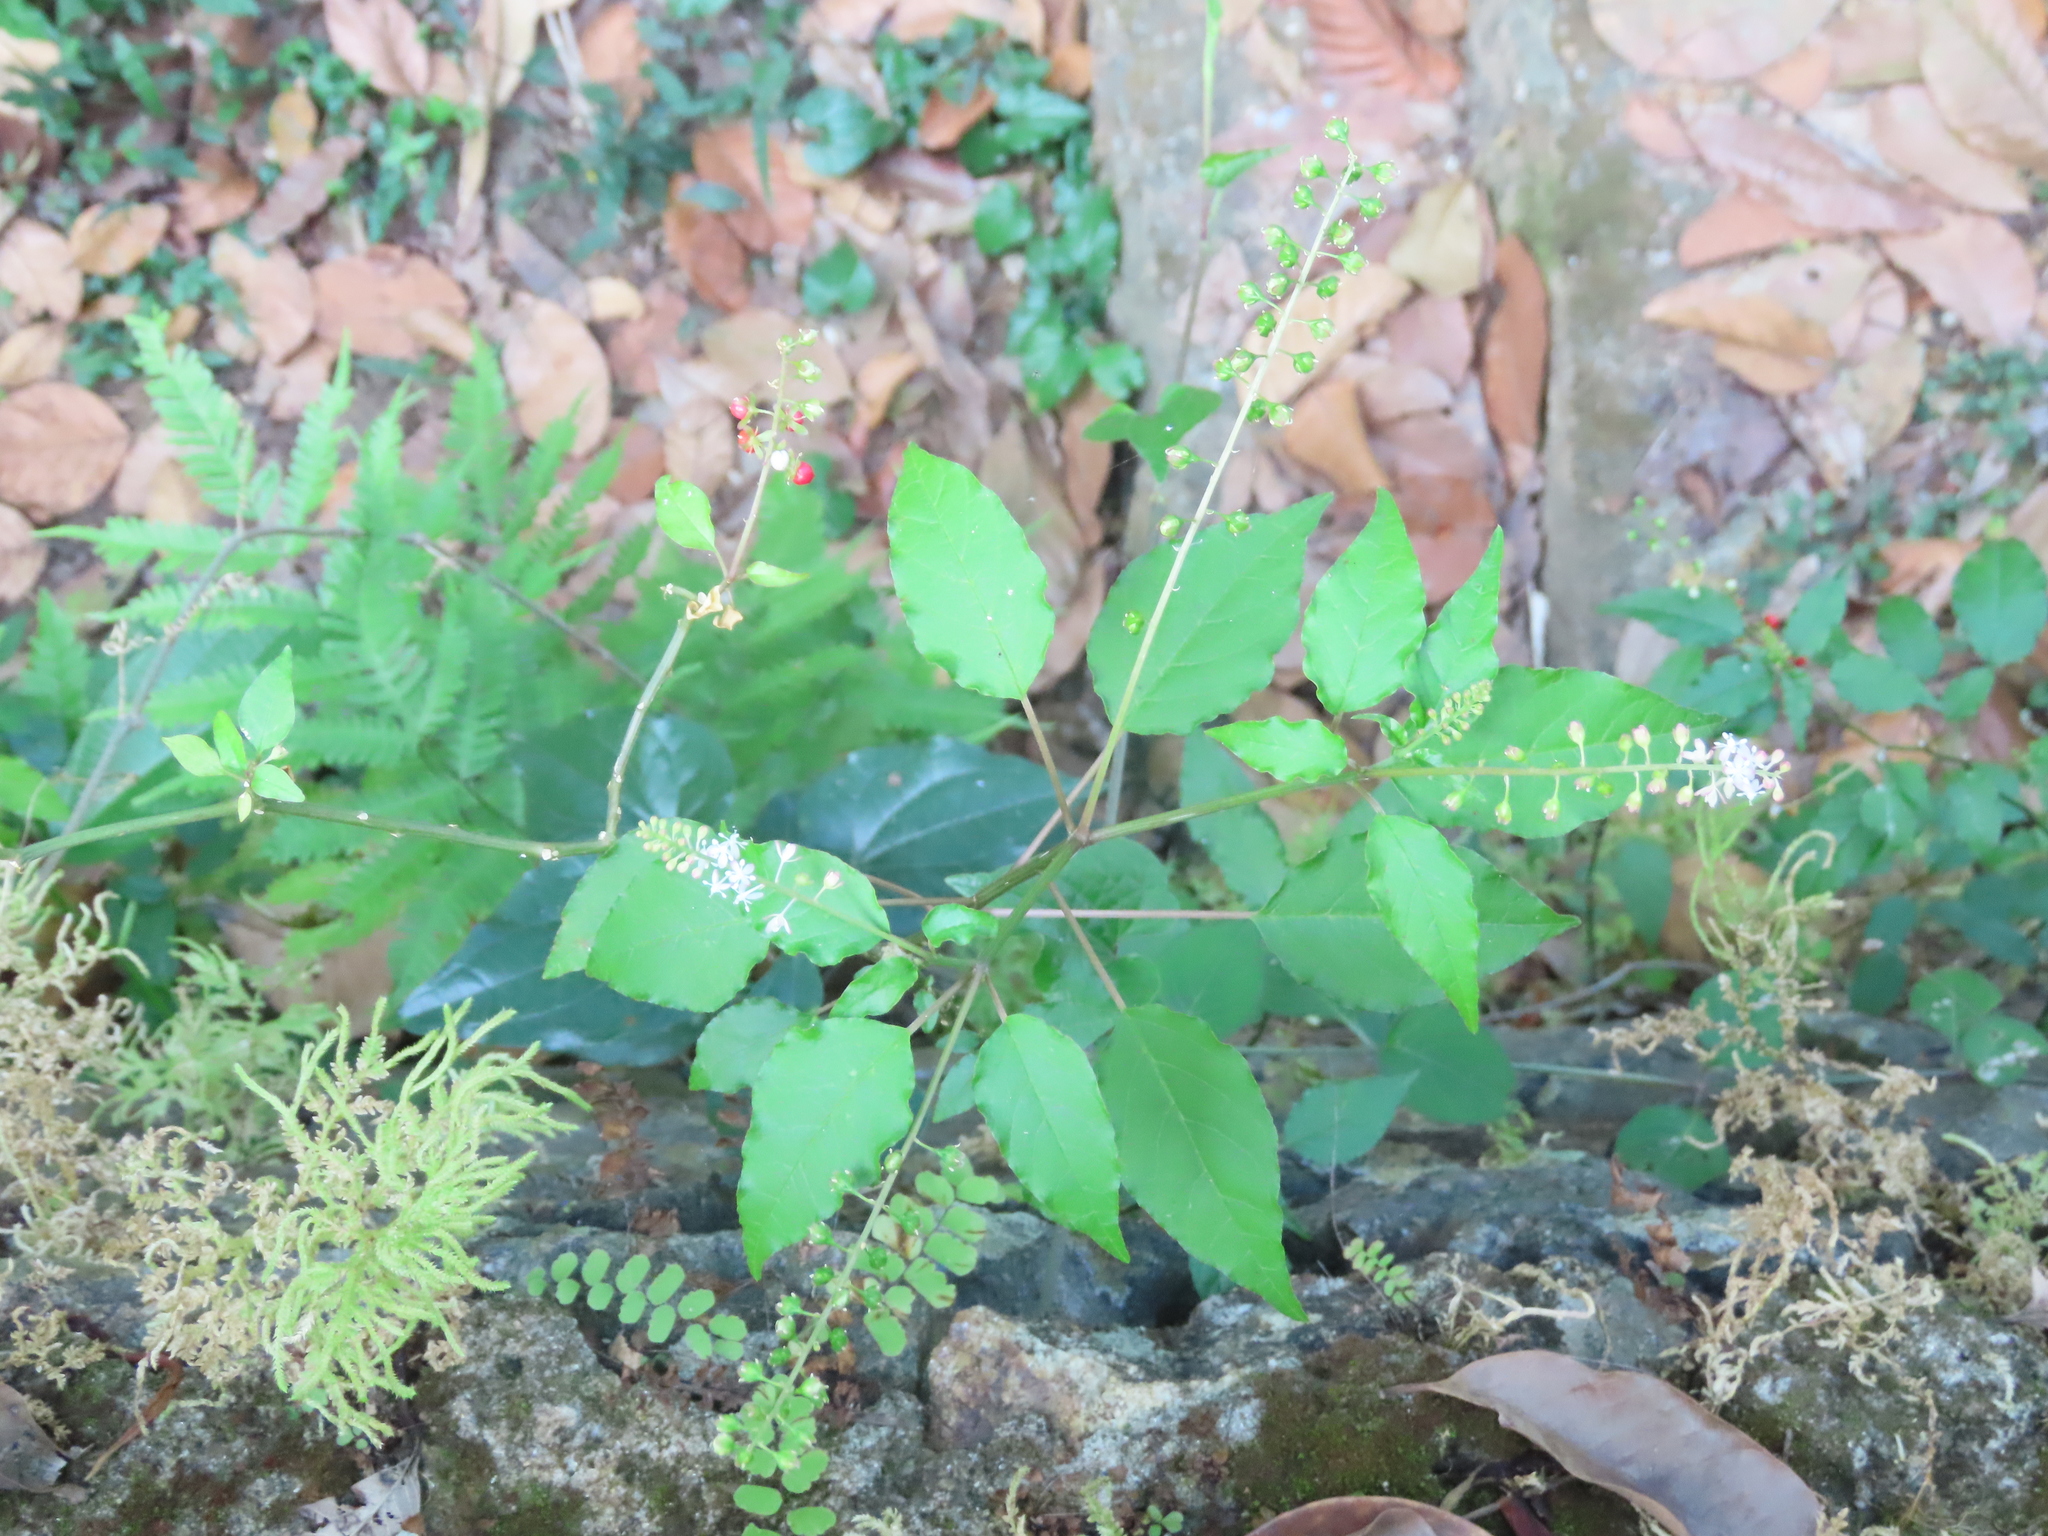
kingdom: Plantae
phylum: Tracheophyta
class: Magnoliopsida
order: Caryophyllales
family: Phytolaccaceae
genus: Rivina
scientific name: Rivina humilis
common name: Rougeplant
